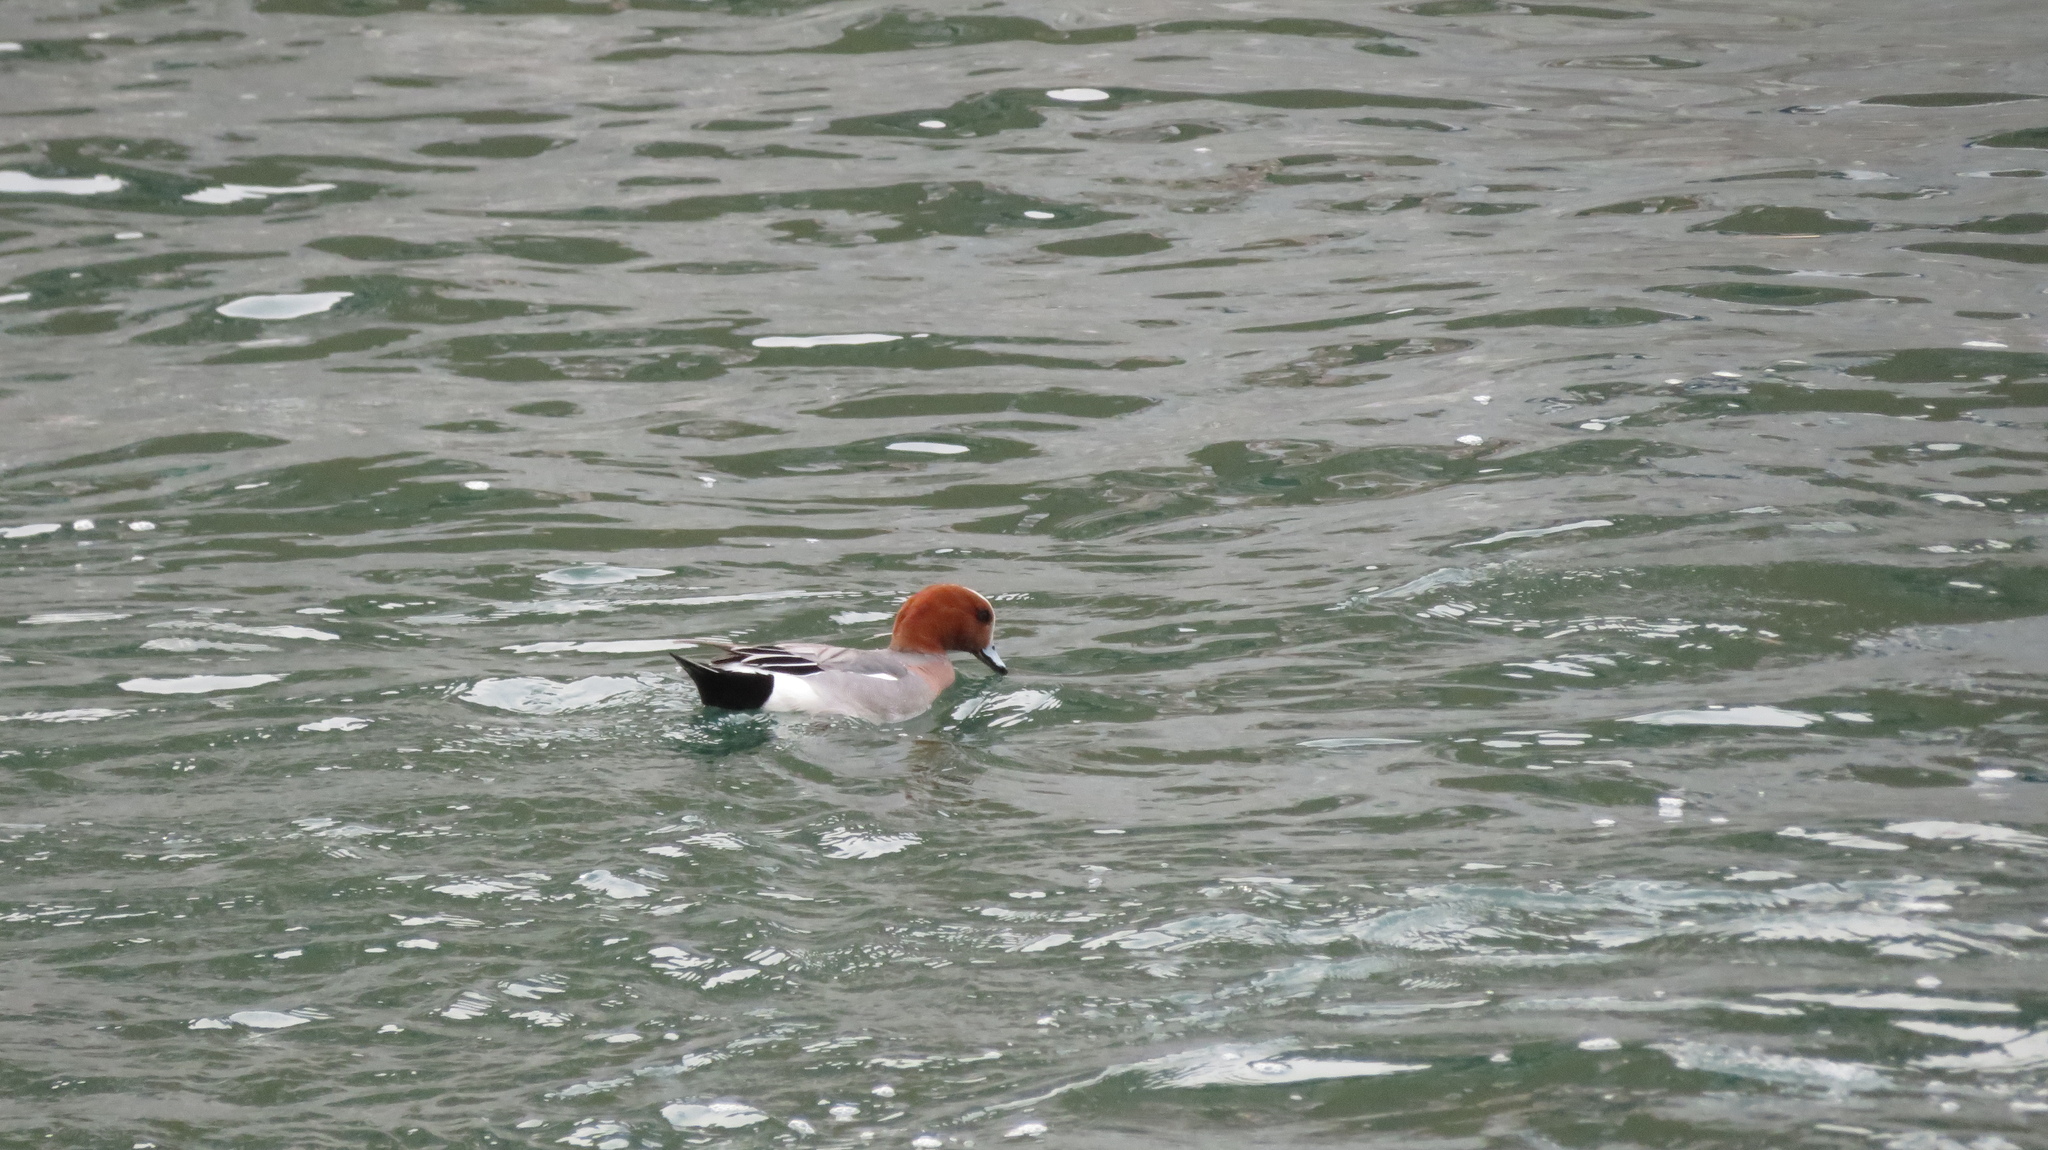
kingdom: Animalia
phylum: Chordata
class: Aves
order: Anseriformes
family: Anatidae
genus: Mareca
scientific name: Mareca penelope
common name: Eurasian wigeon
